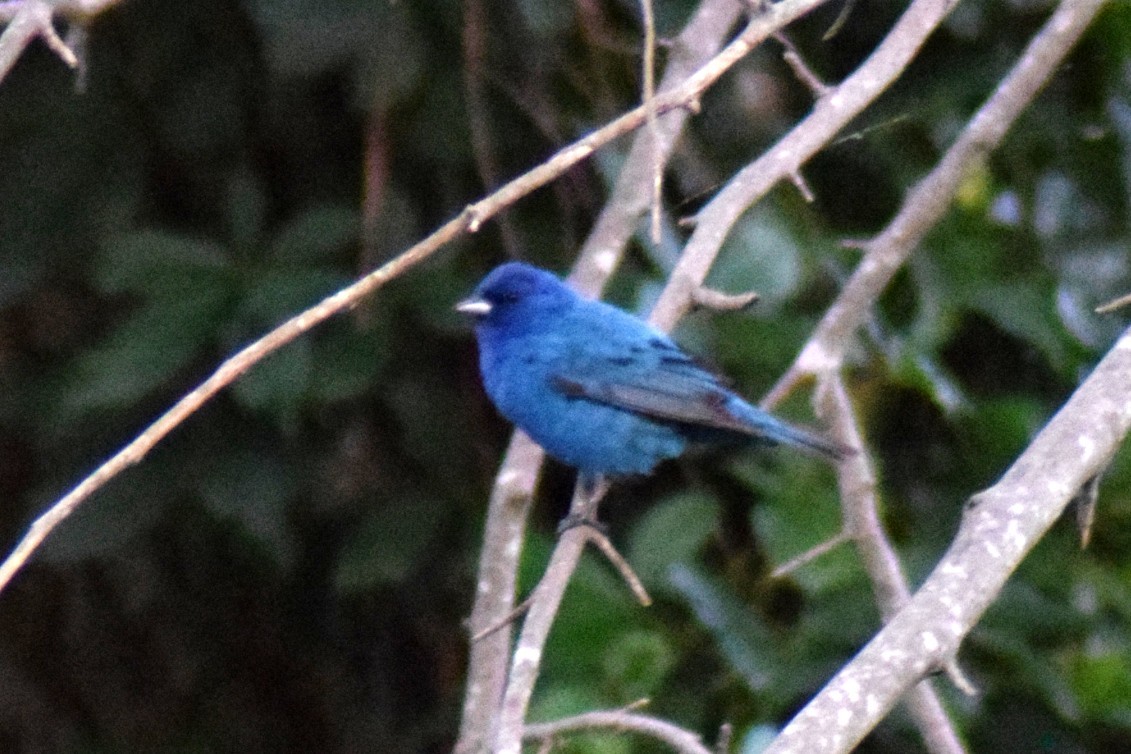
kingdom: Animalia
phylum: Chordata
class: Aves
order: Passeriformes
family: Cardinalidae
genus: Passerina
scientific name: Passerina cyanea
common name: Indigo bunting
